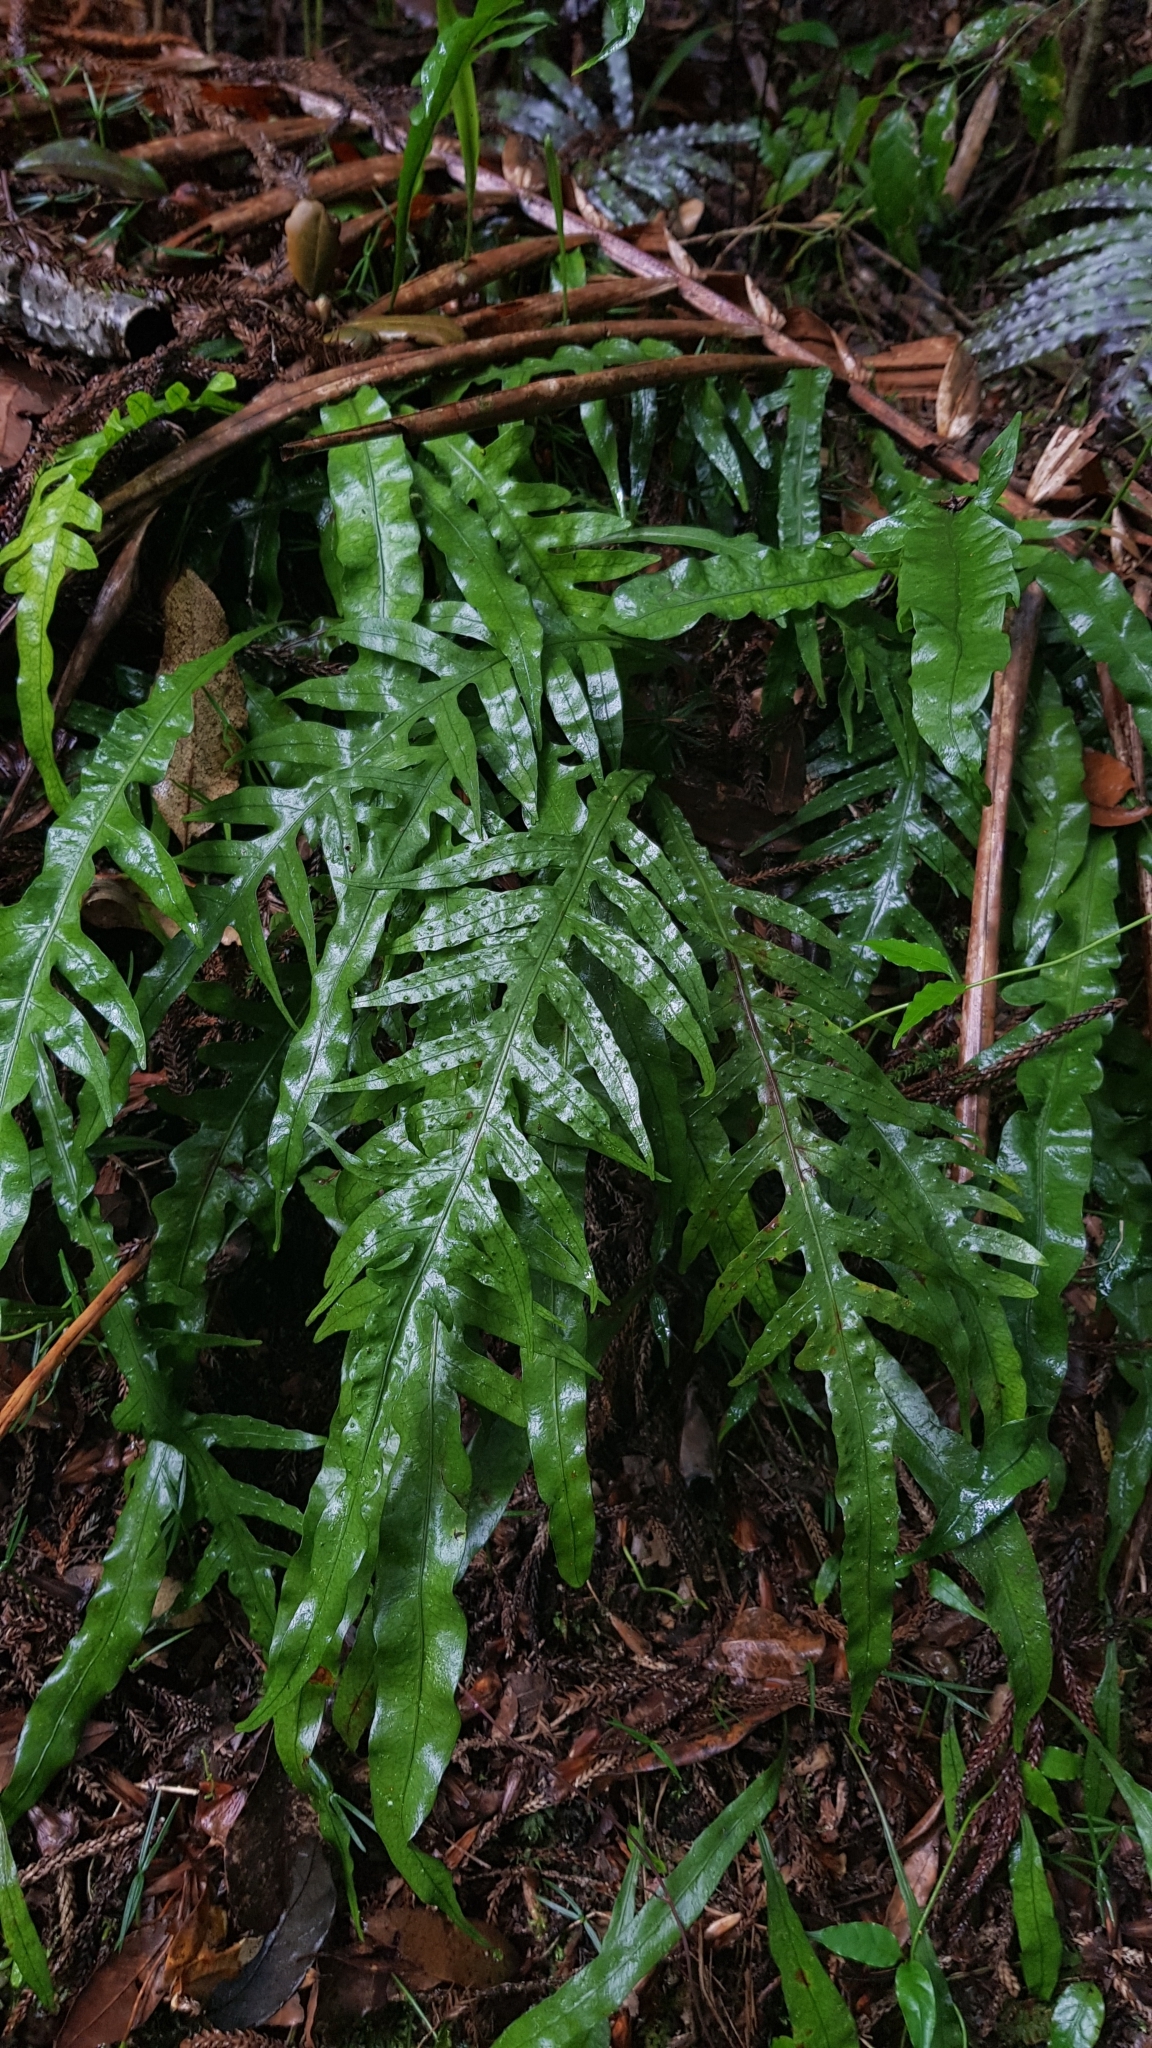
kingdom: Plantae
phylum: Tracheophyta
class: Polypodiopsida
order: Polypodiales
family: Polypodiaceae
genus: Lecanopteris
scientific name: Lecanopteris scandens
